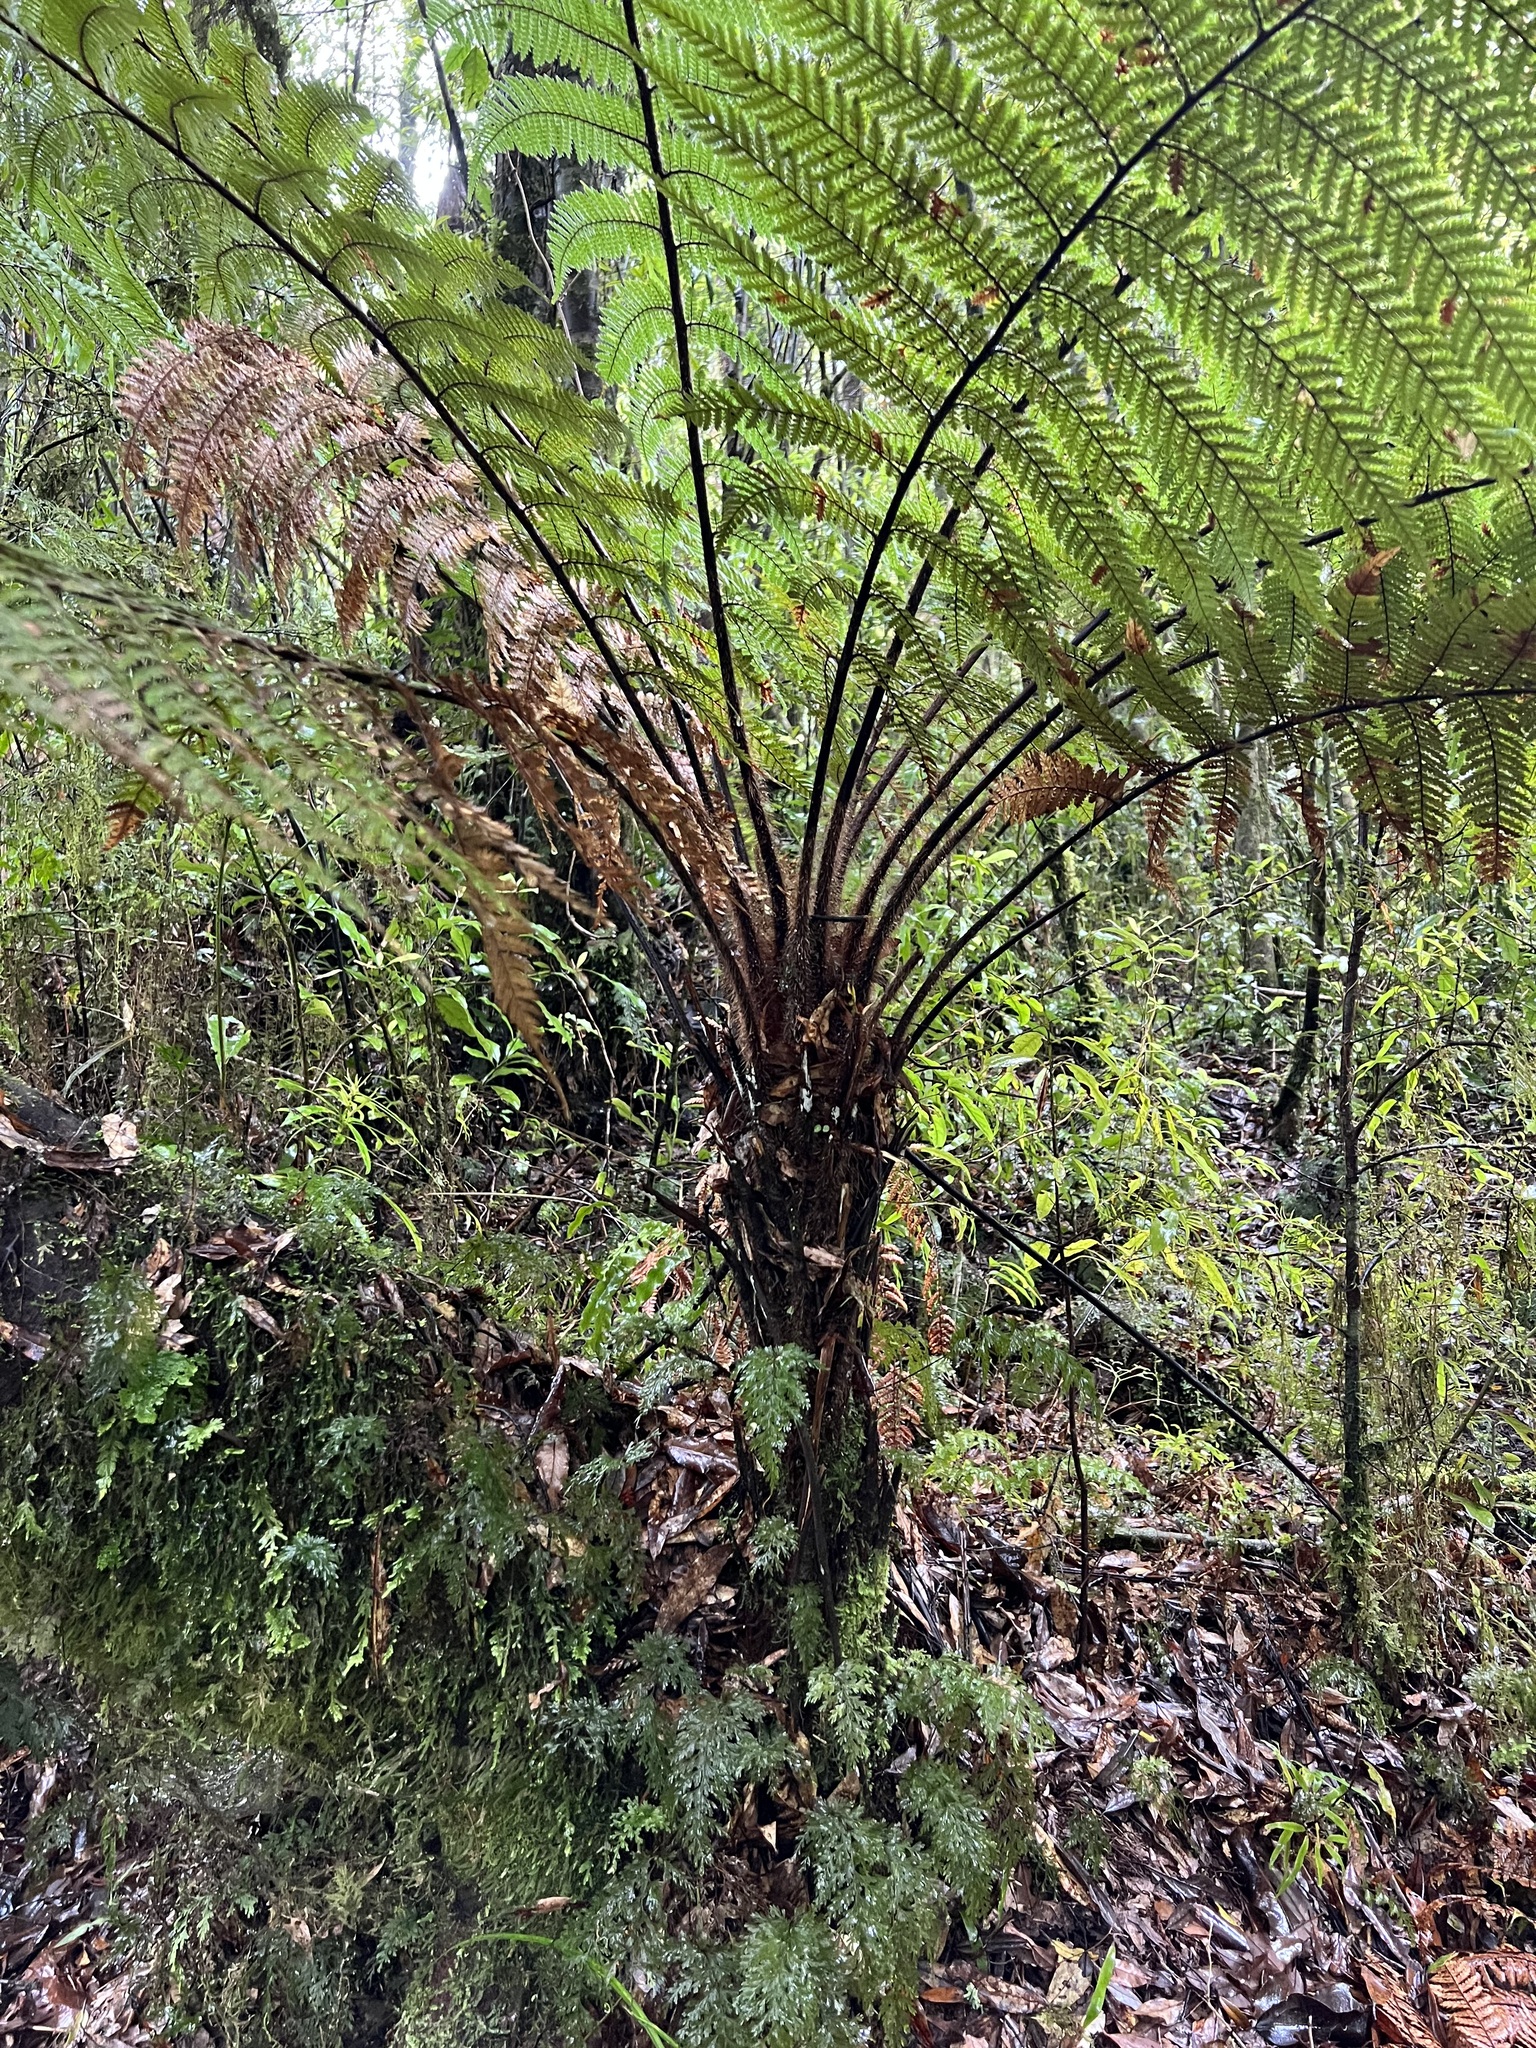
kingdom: Plantae
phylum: Tracheophyta
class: Polypodiopsida
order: Cyatheales
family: Dicksoniaceae
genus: Dicksonia
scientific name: Dicksonia squarrosa
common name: Hard treefern
